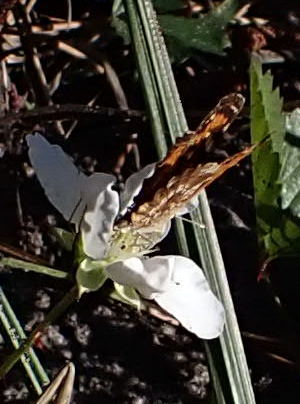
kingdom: Animalia
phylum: Arthropoda
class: Insecta
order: Lepidoptera
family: Nymphalidae
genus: Phyciodes
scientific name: Phyciodes phaon
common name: Phaon crescent
